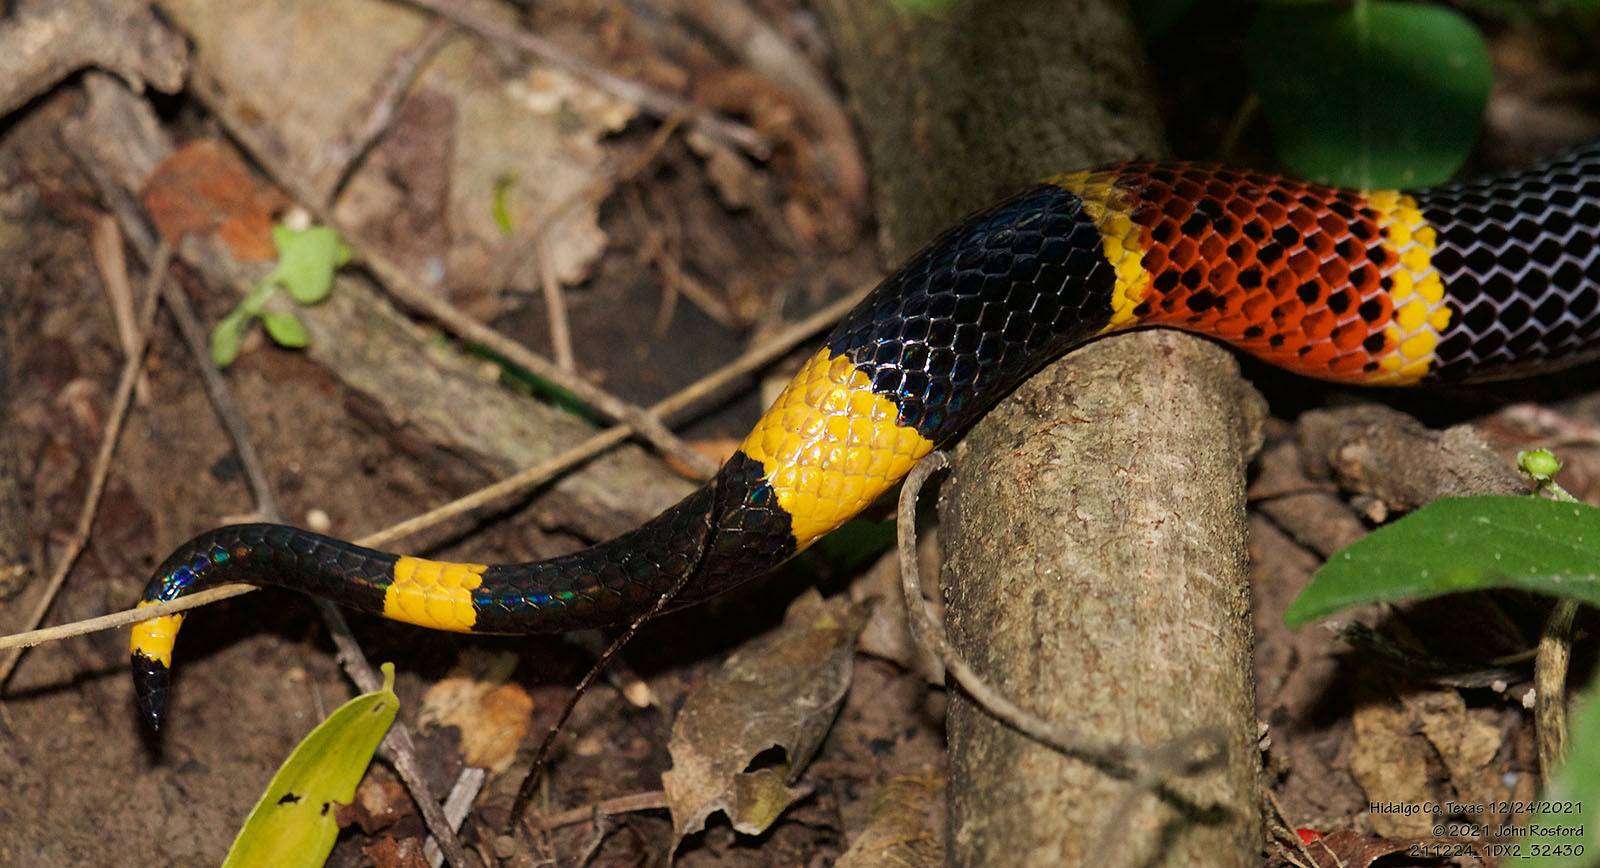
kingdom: Animalia
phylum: Chordata
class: Squamata
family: Elapidae
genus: Micrurus
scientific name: Micrurus tener
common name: Texas coral snake
